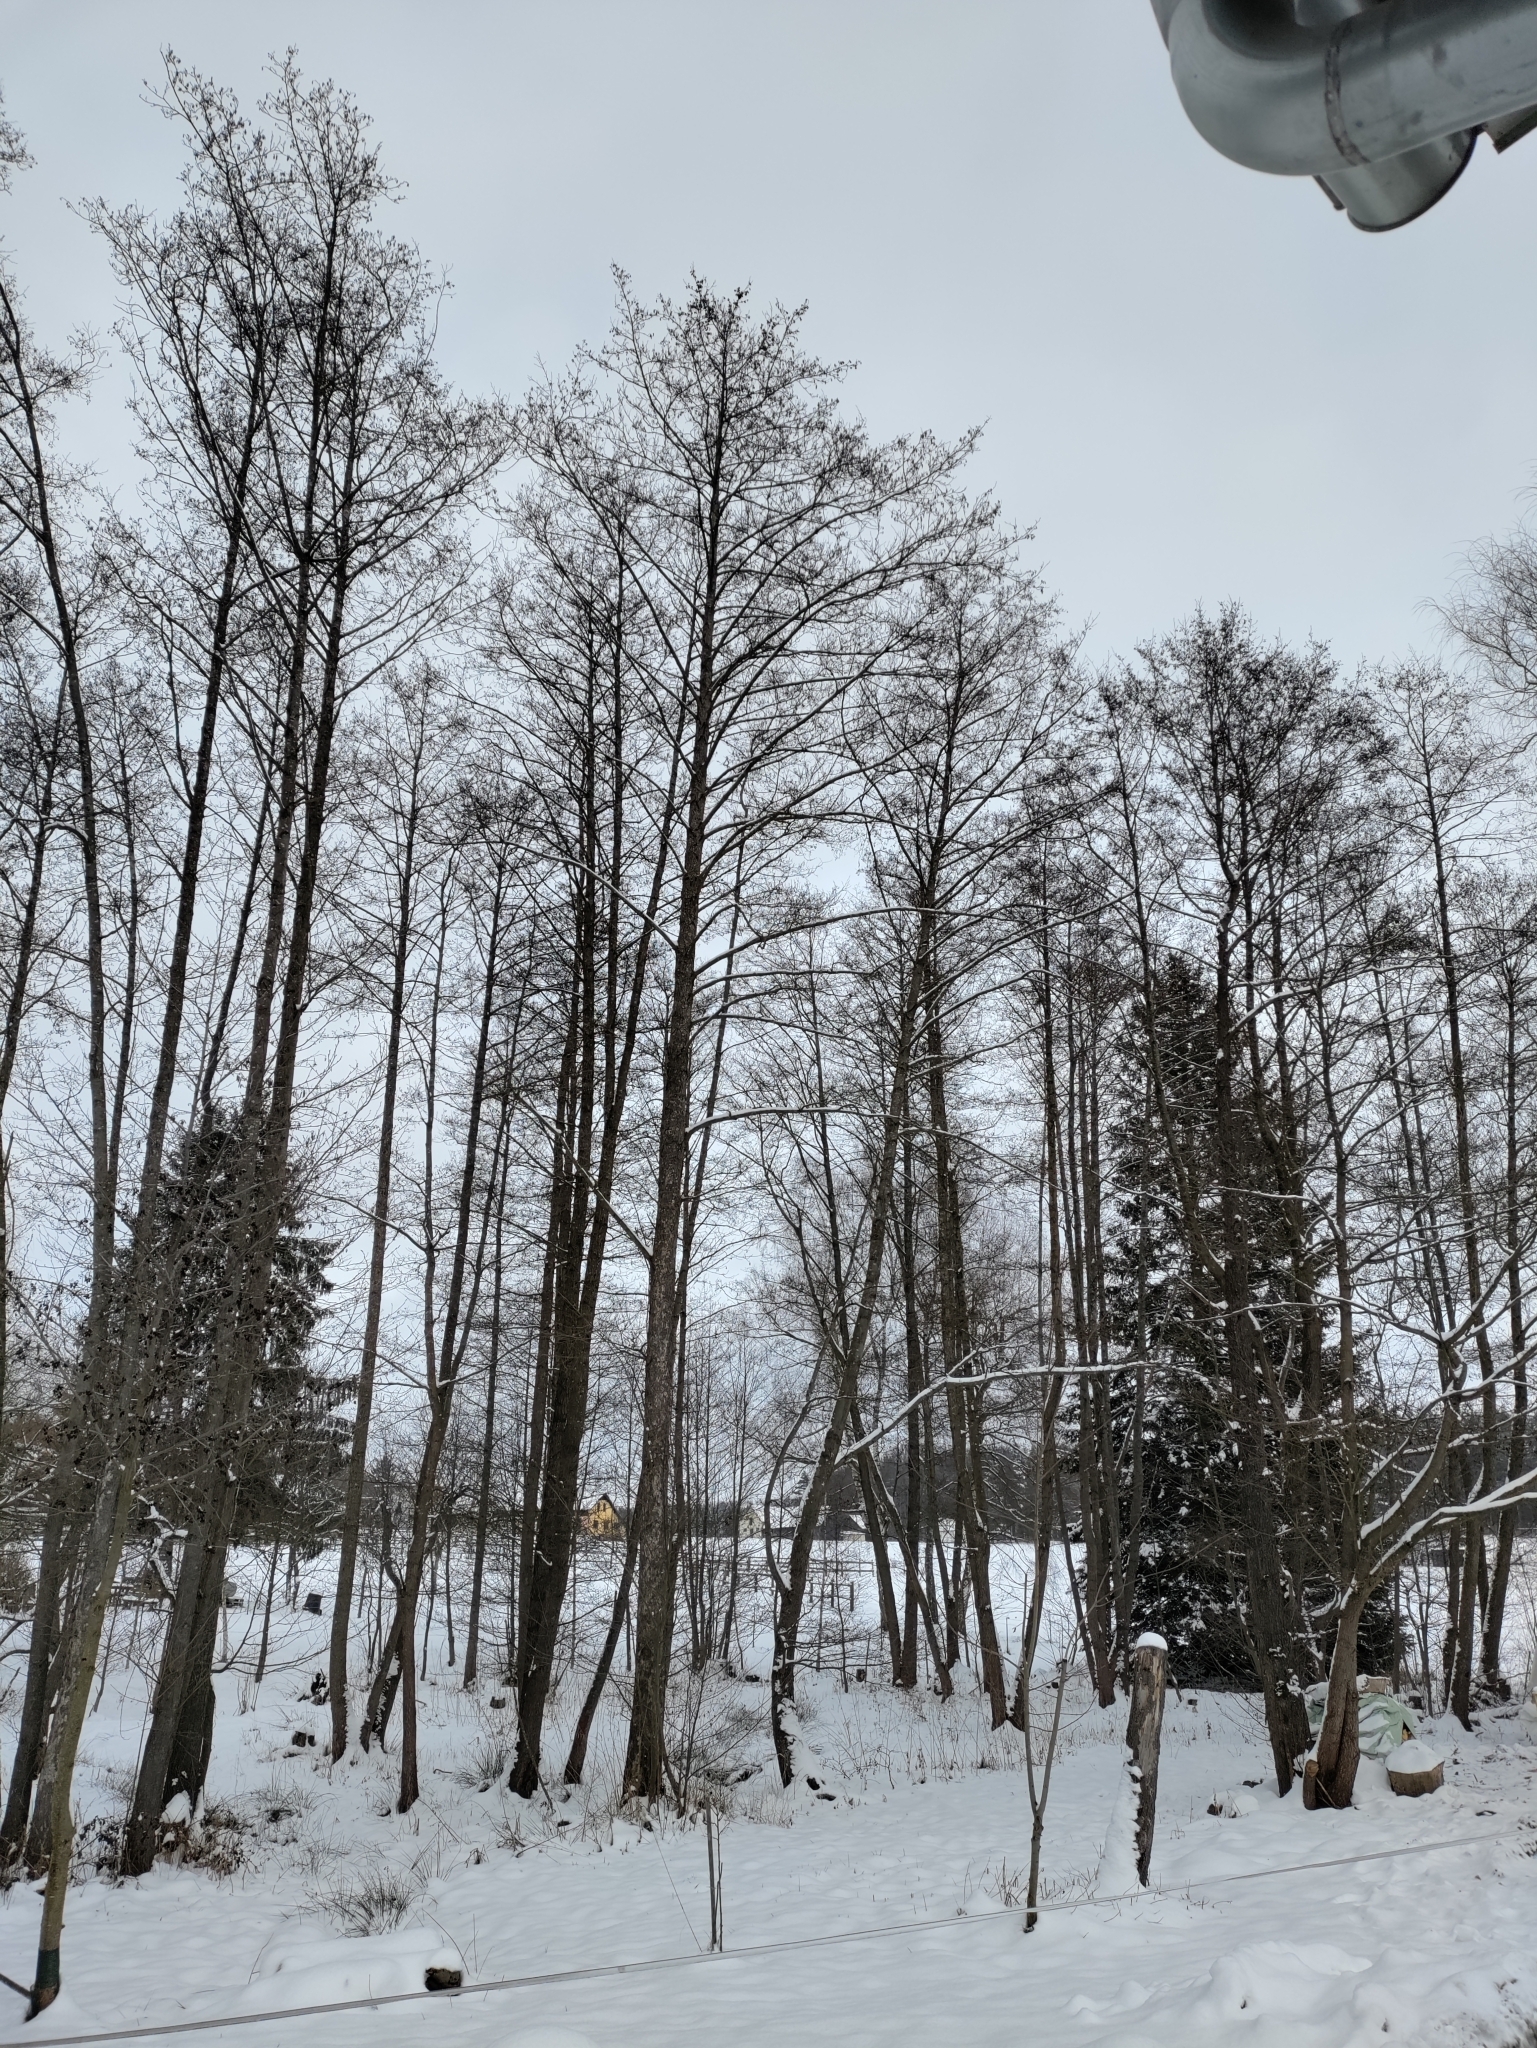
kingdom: Plantae
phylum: Tracheophyta
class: Magnoliopsida
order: Fagales
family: Betulaceae
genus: Alnus
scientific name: Alnus glutinosa
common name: Black alder
